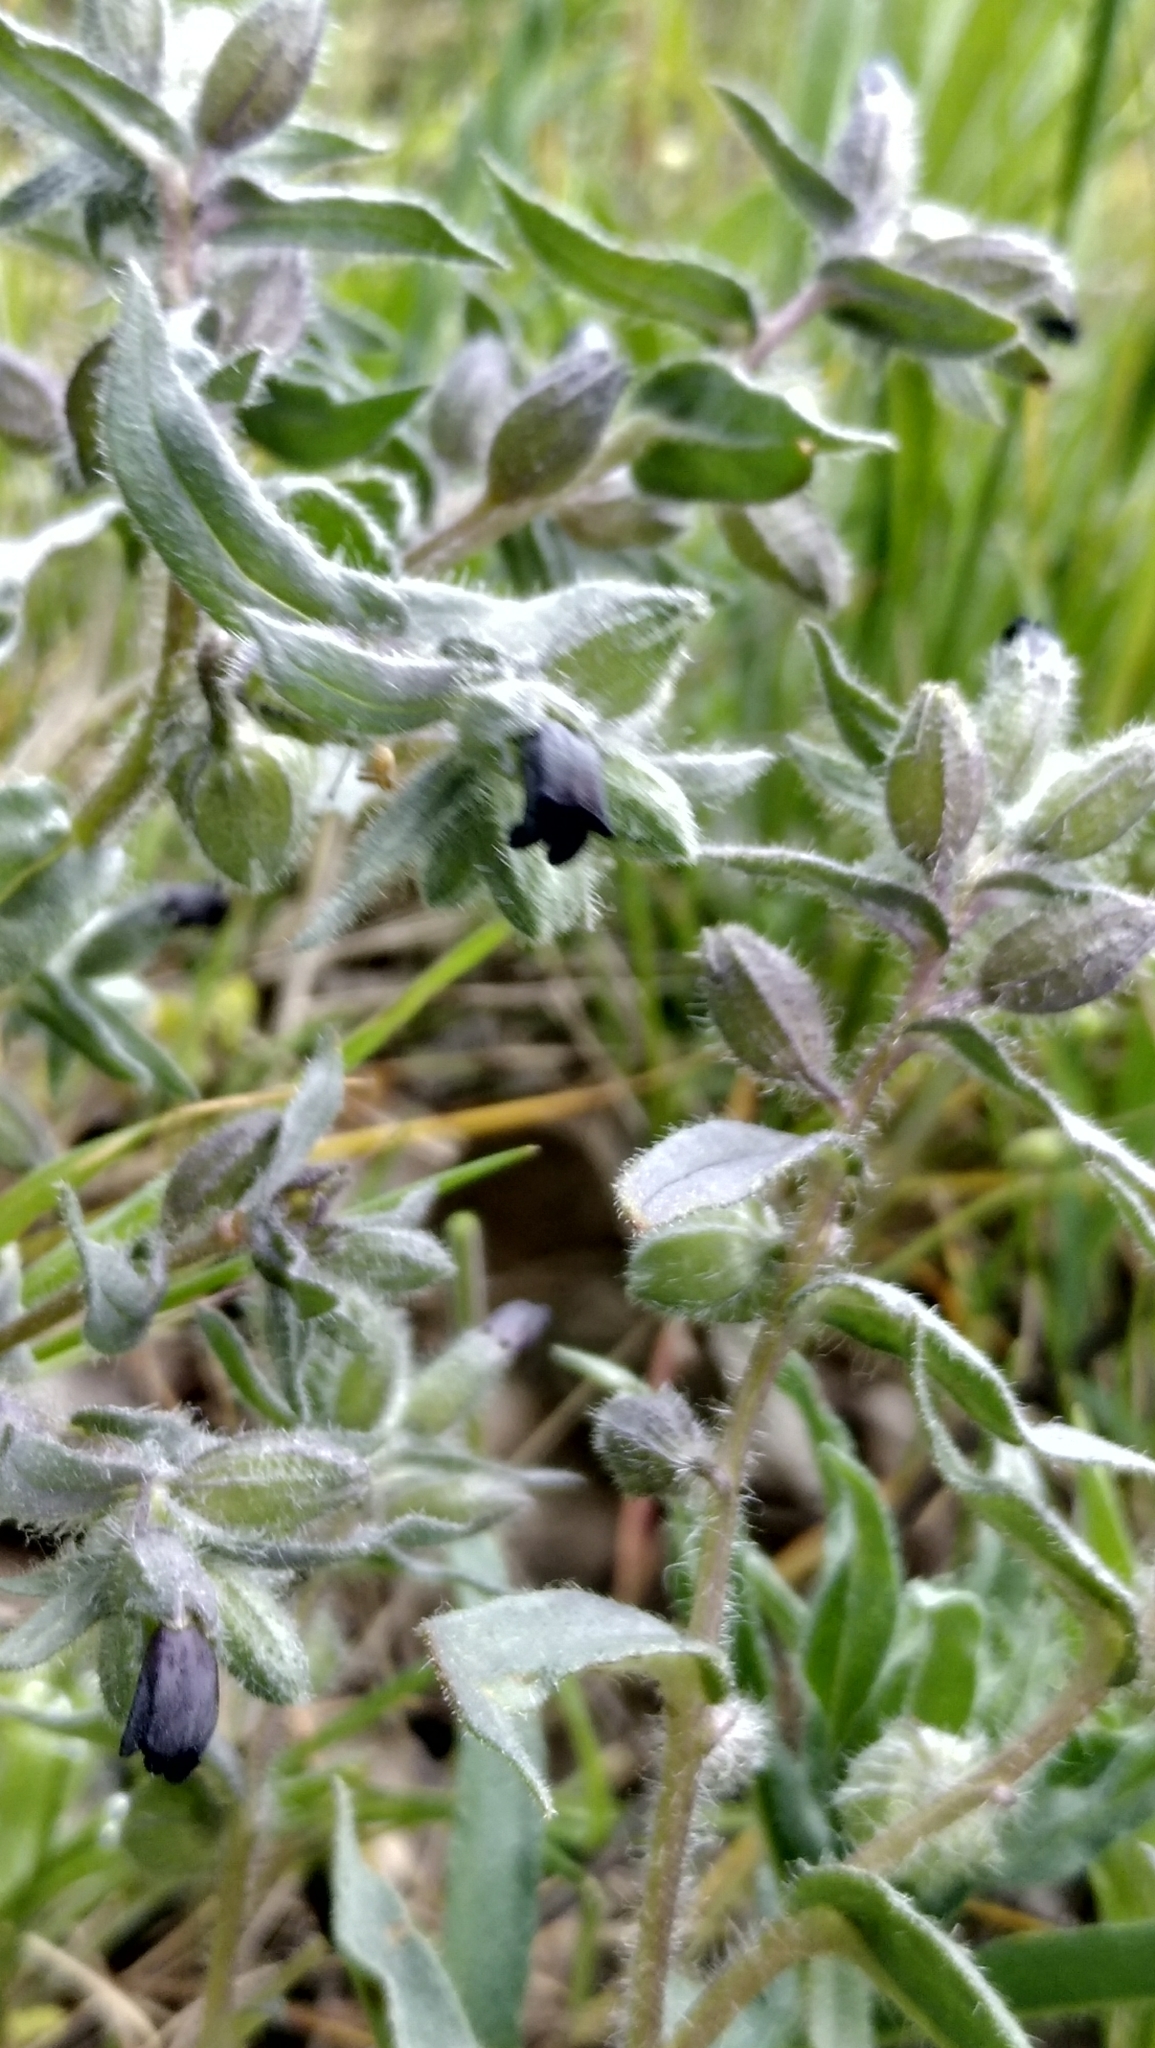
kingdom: Plantae
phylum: Tracheophyta
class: Magnoliopsida
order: Boraginales
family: Boraginaceae
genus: Nonea
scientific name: Nonea pulla
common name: Brown nonea
